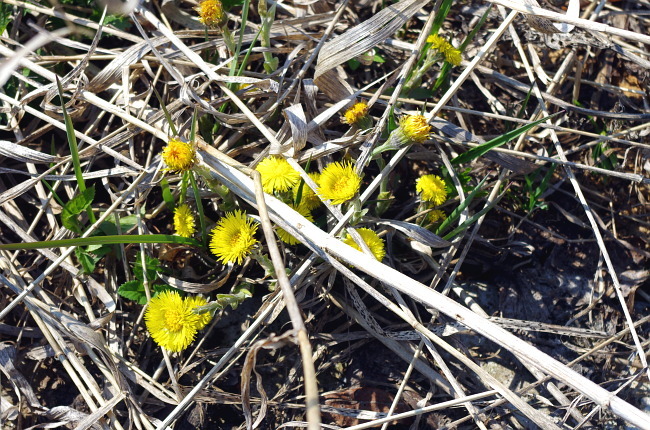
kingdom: Plantae
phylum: Tracheophyta
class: Magnoliopsida
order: Asterales
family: Asteraceae
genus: Tussilago
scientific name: Tussilago farfara
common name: Coltsfoot
